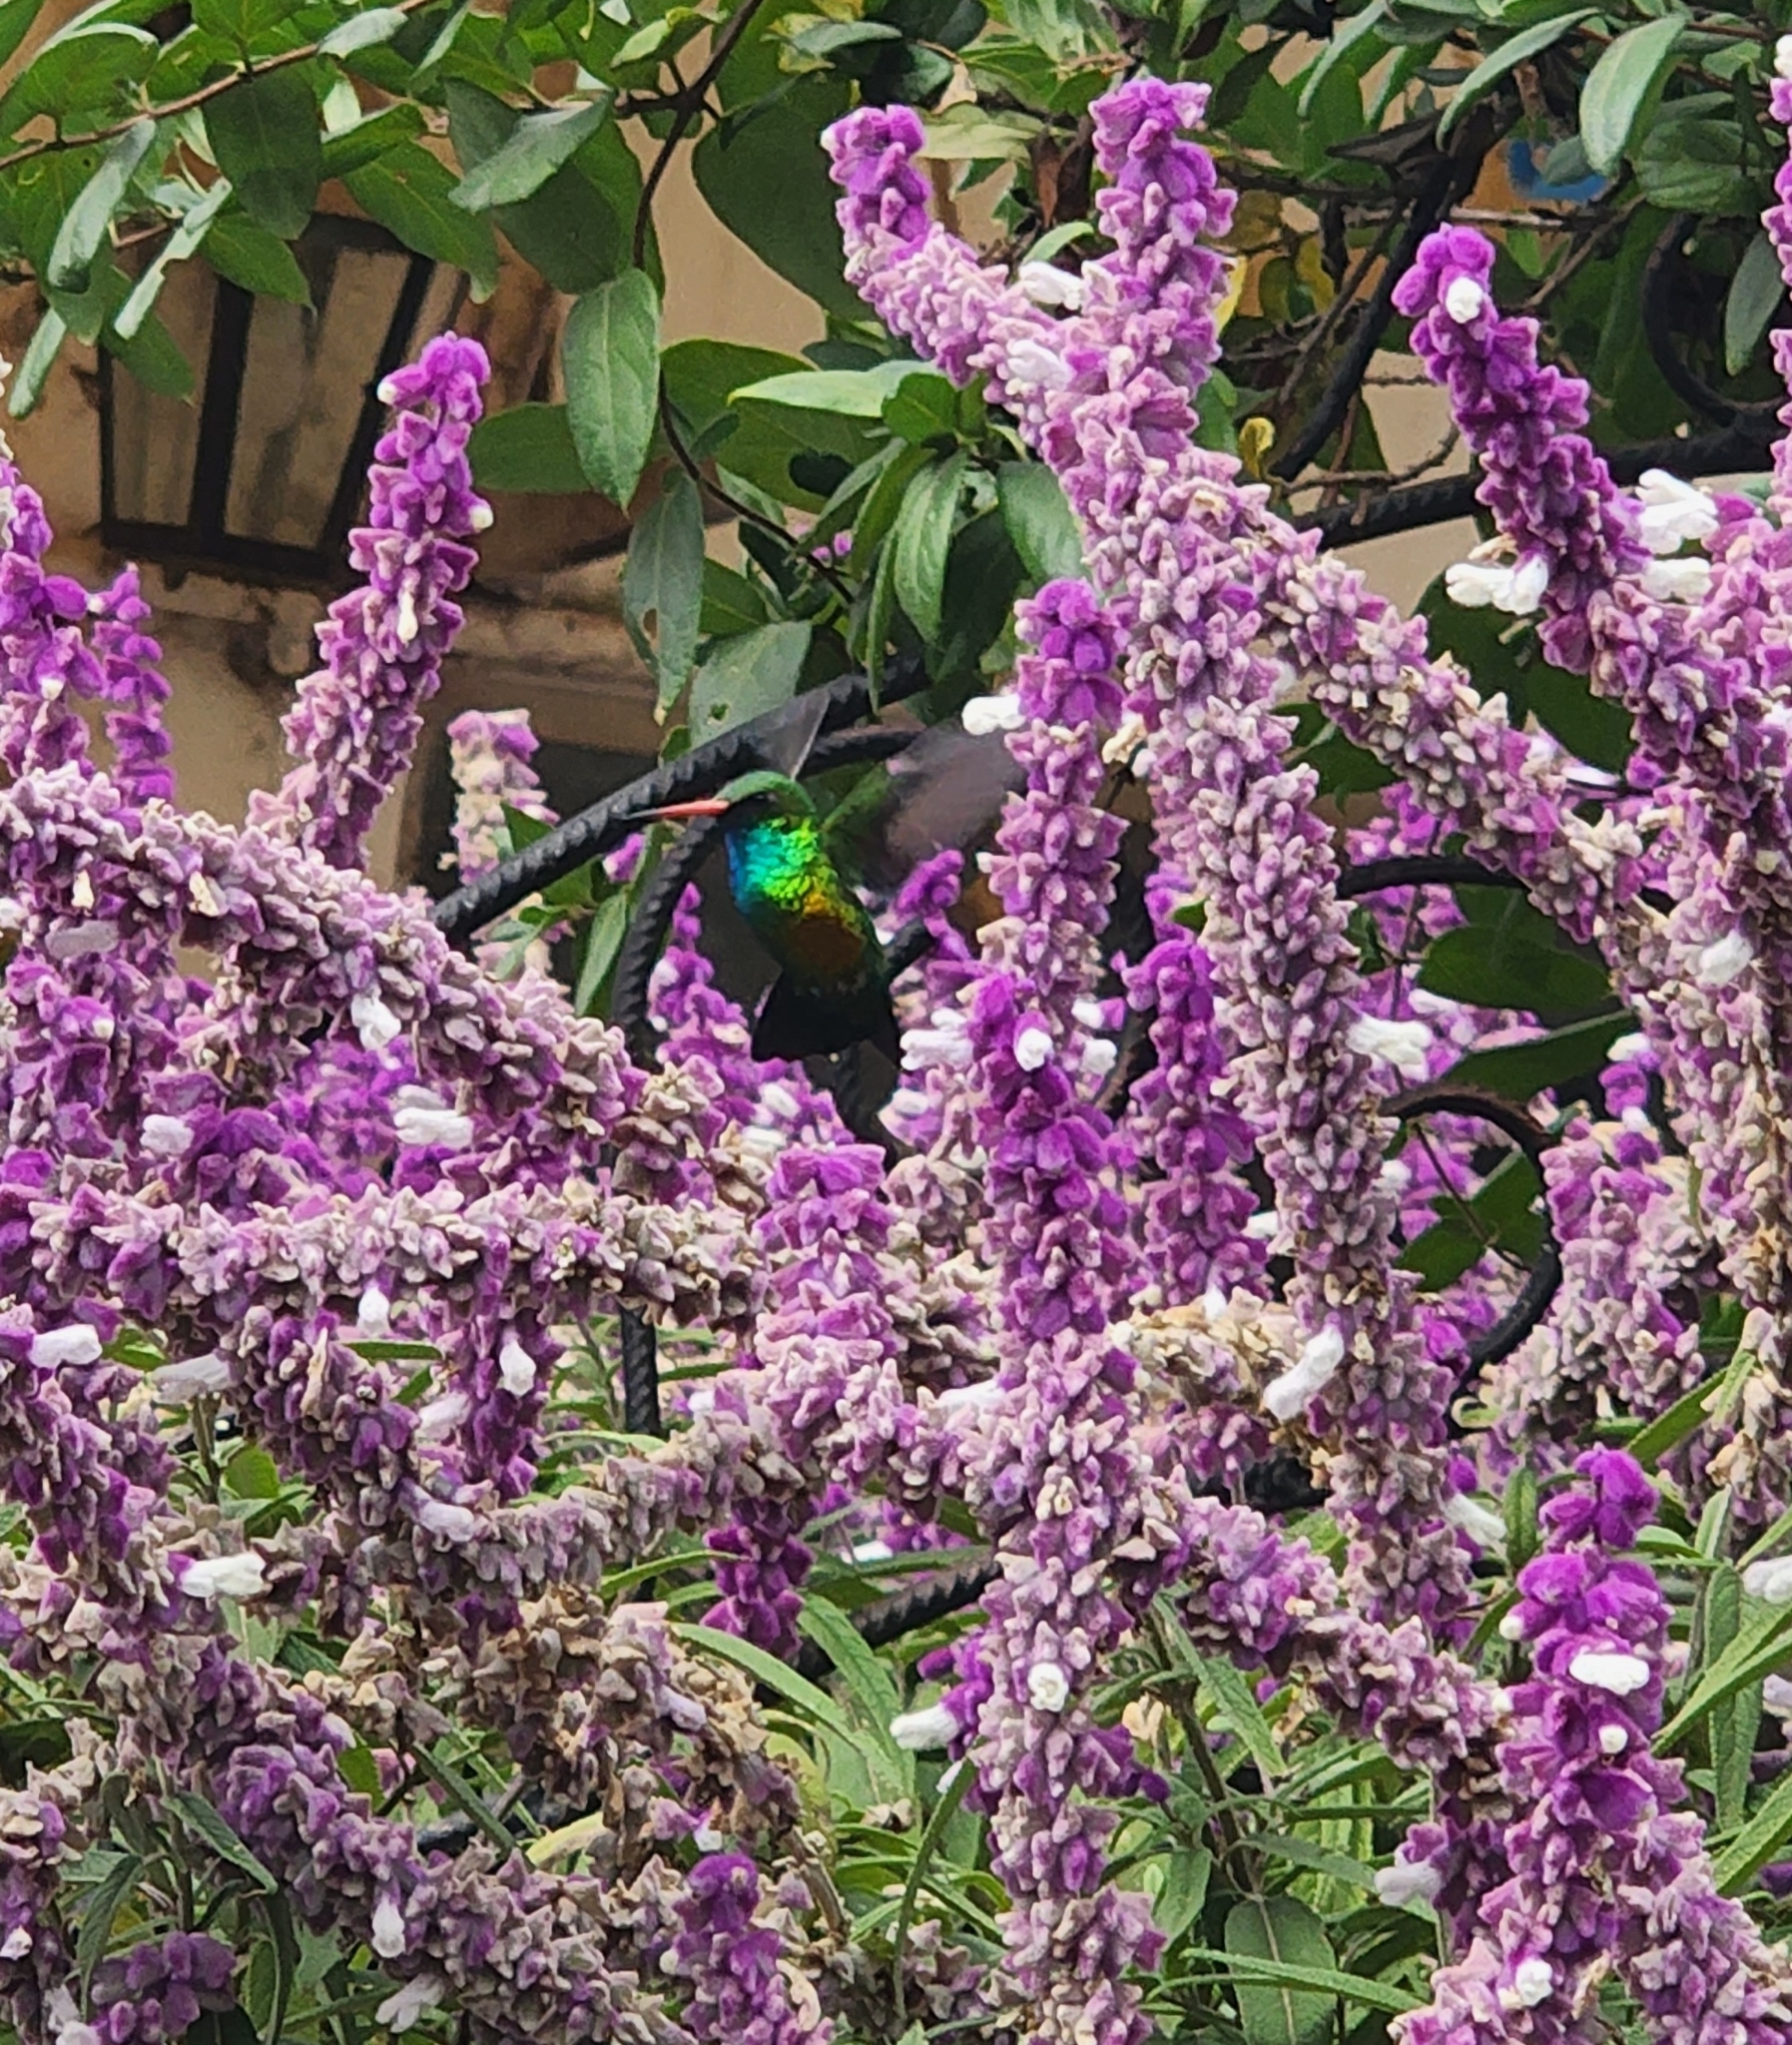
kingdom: Animalia
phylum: Chordata
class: Aves
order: Apodiformes
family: Trochilidae
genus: Chlorostilbon
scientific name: Chlorostilbon lucidus
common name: Glittering-bellied emerald
